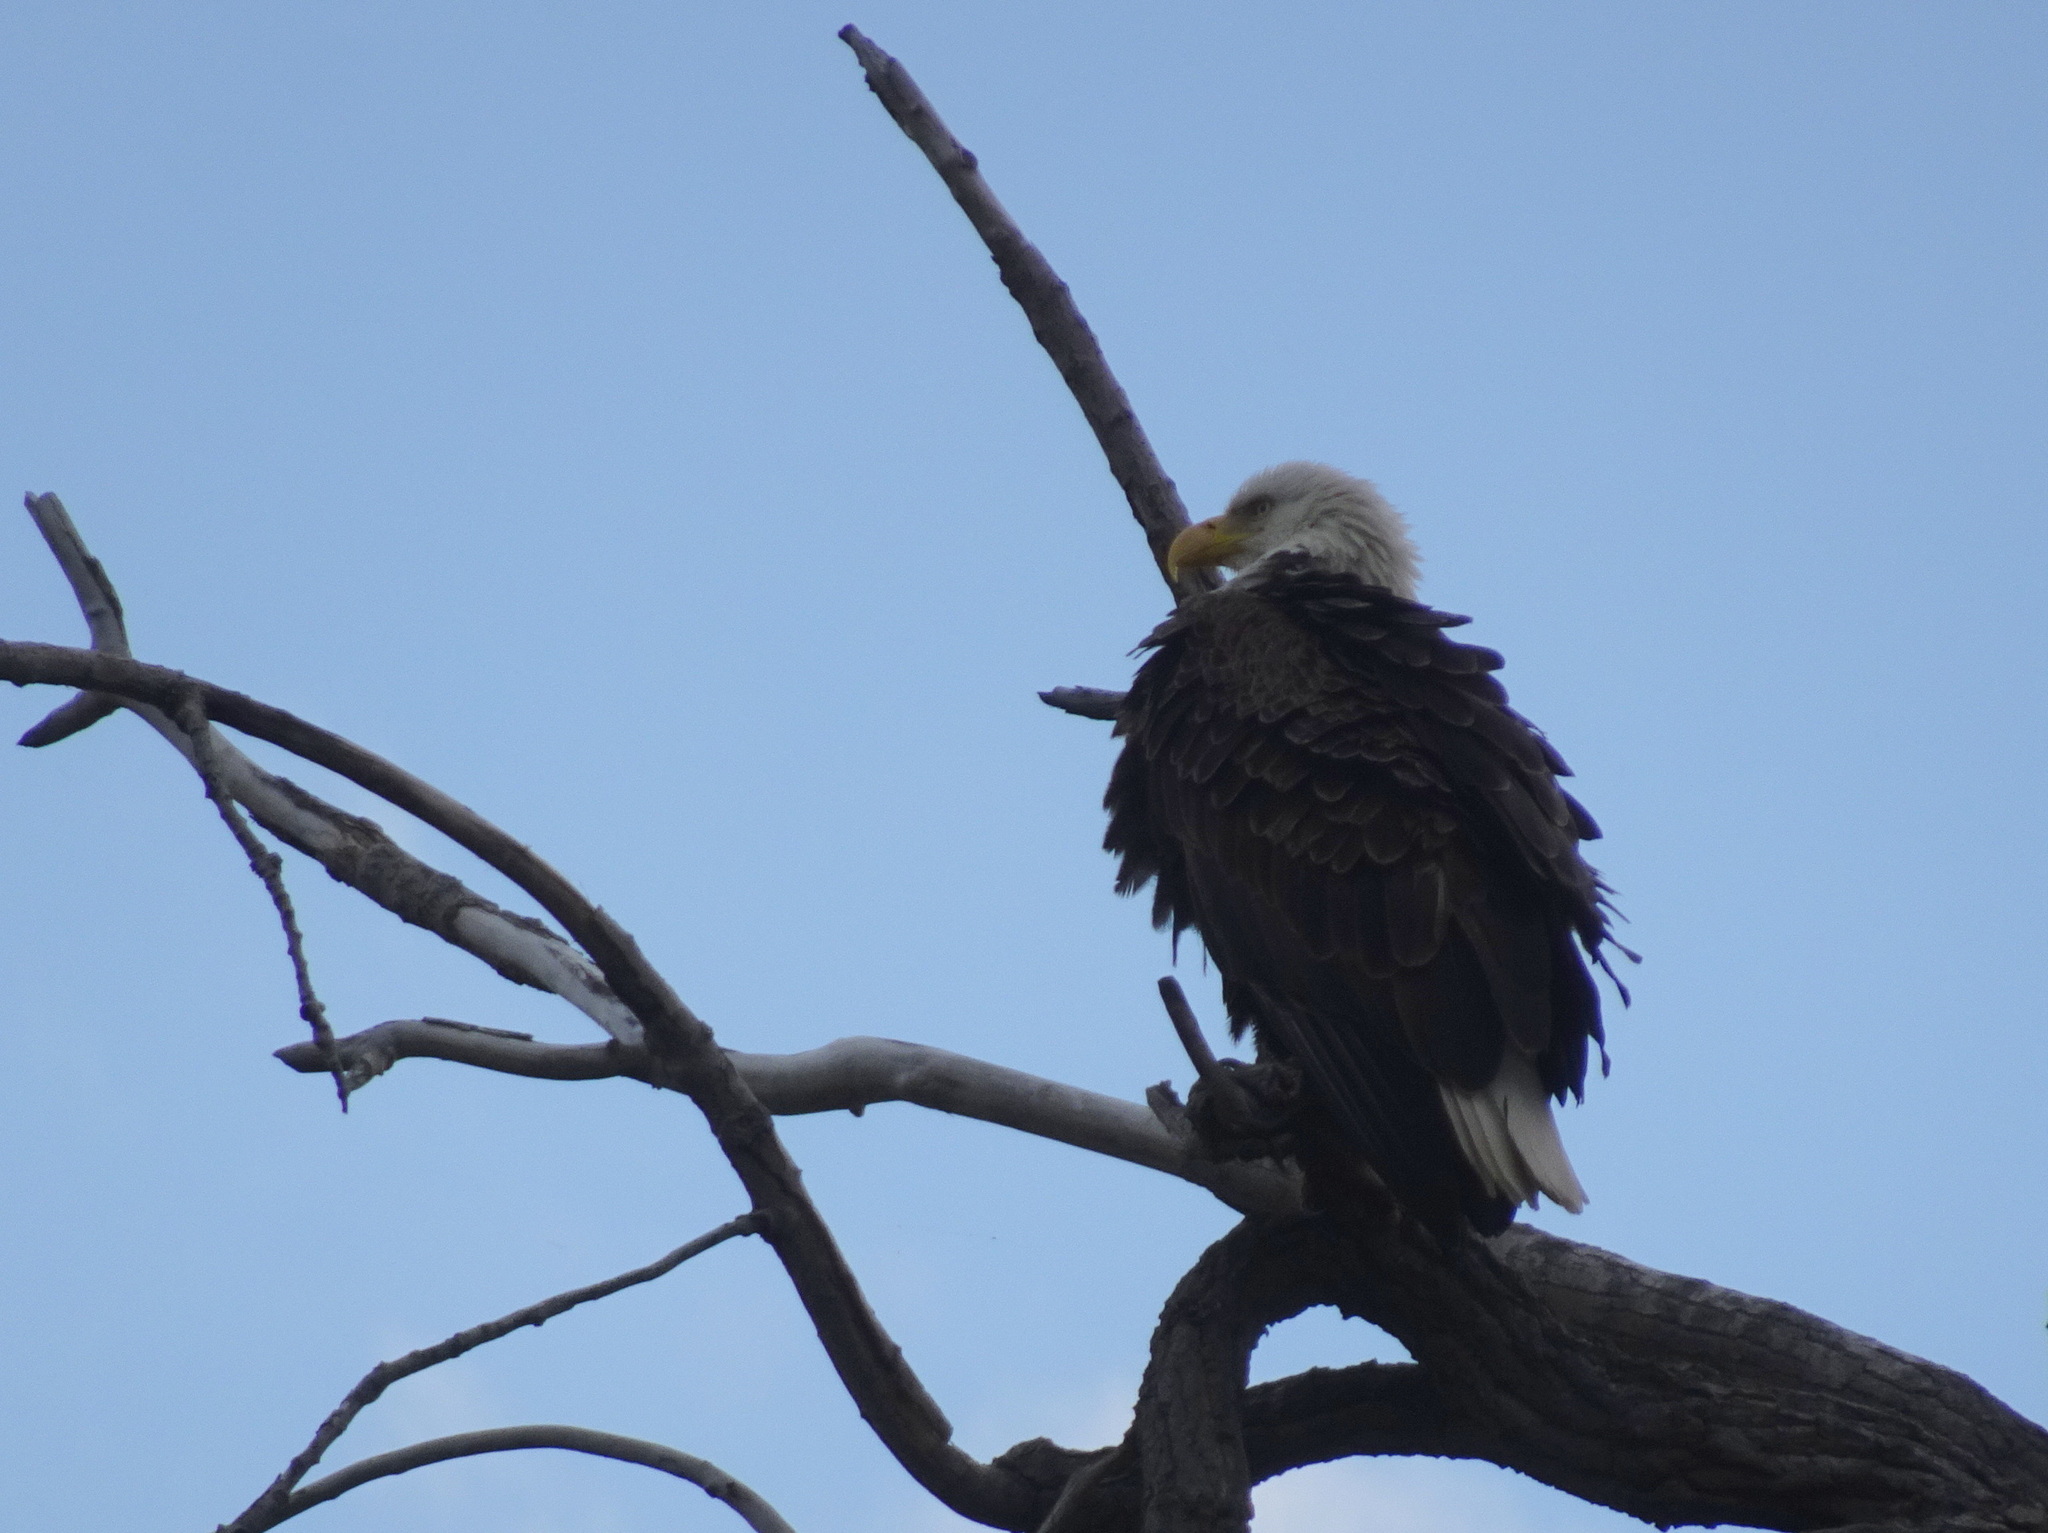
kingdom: Animalia
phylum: Chordata
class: Aves
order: Accipitriformes
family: Accipitridae
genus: Haliaeetus
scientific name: Haliaeetus leucocephalus
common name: Bald eagle
